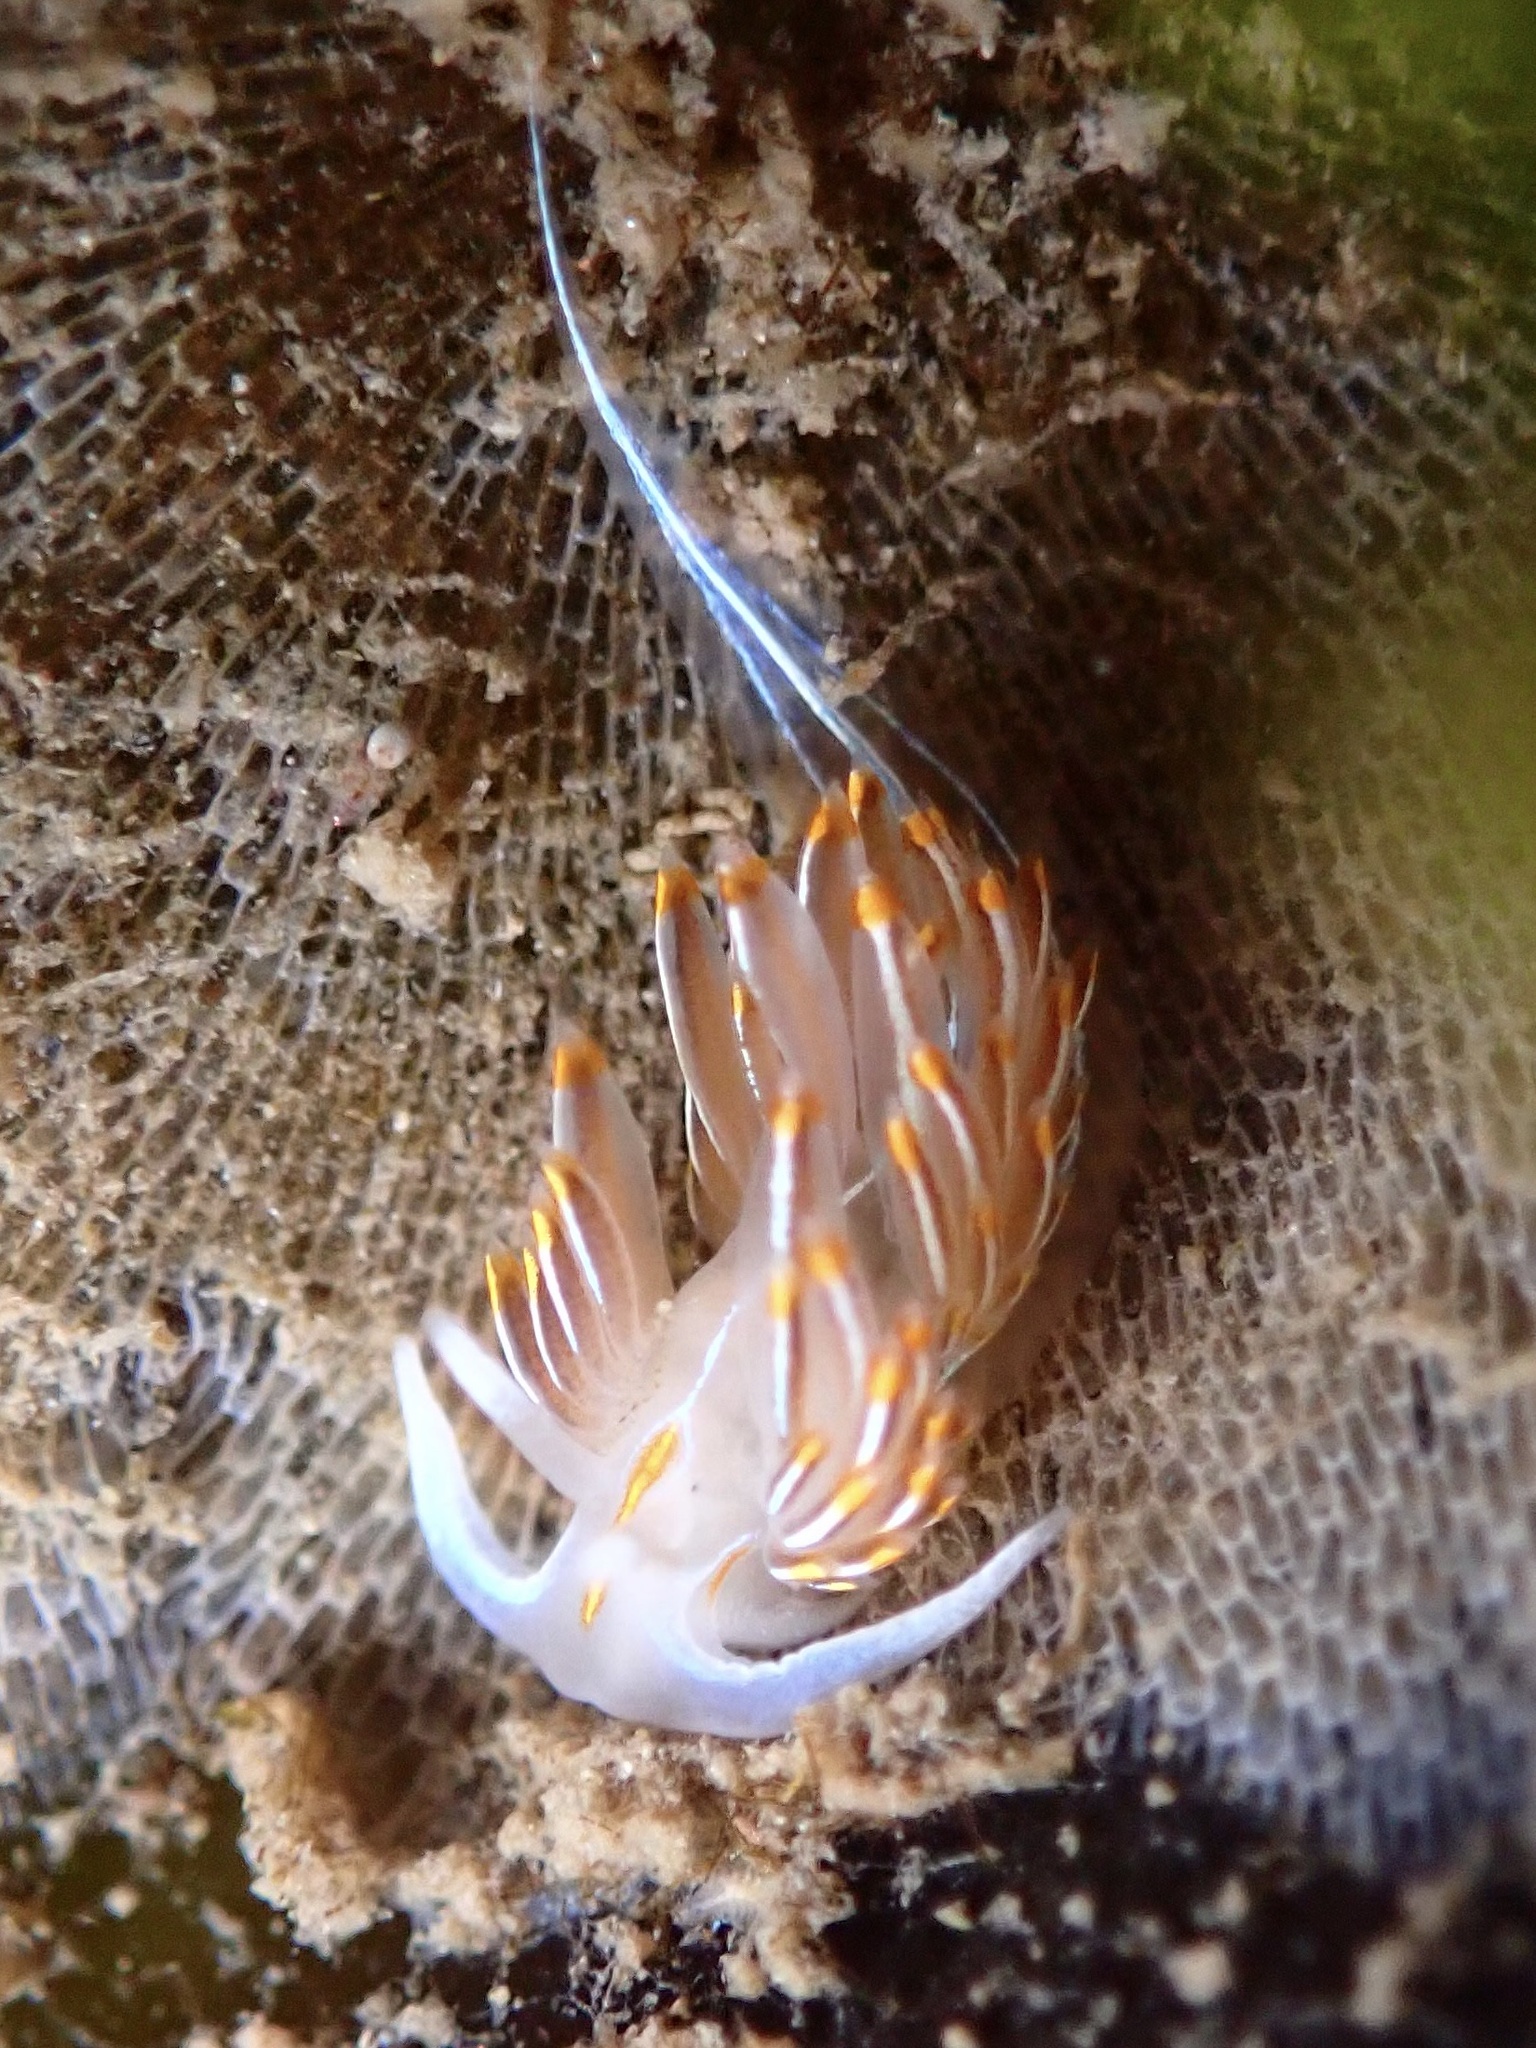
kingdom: Animalia
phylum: Mollusca
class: Gastropoda
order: Nudibranchia
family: Myrrhinidae
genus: Hermissenda
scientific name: Hermissenda crassicornis
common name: Hermissenda
